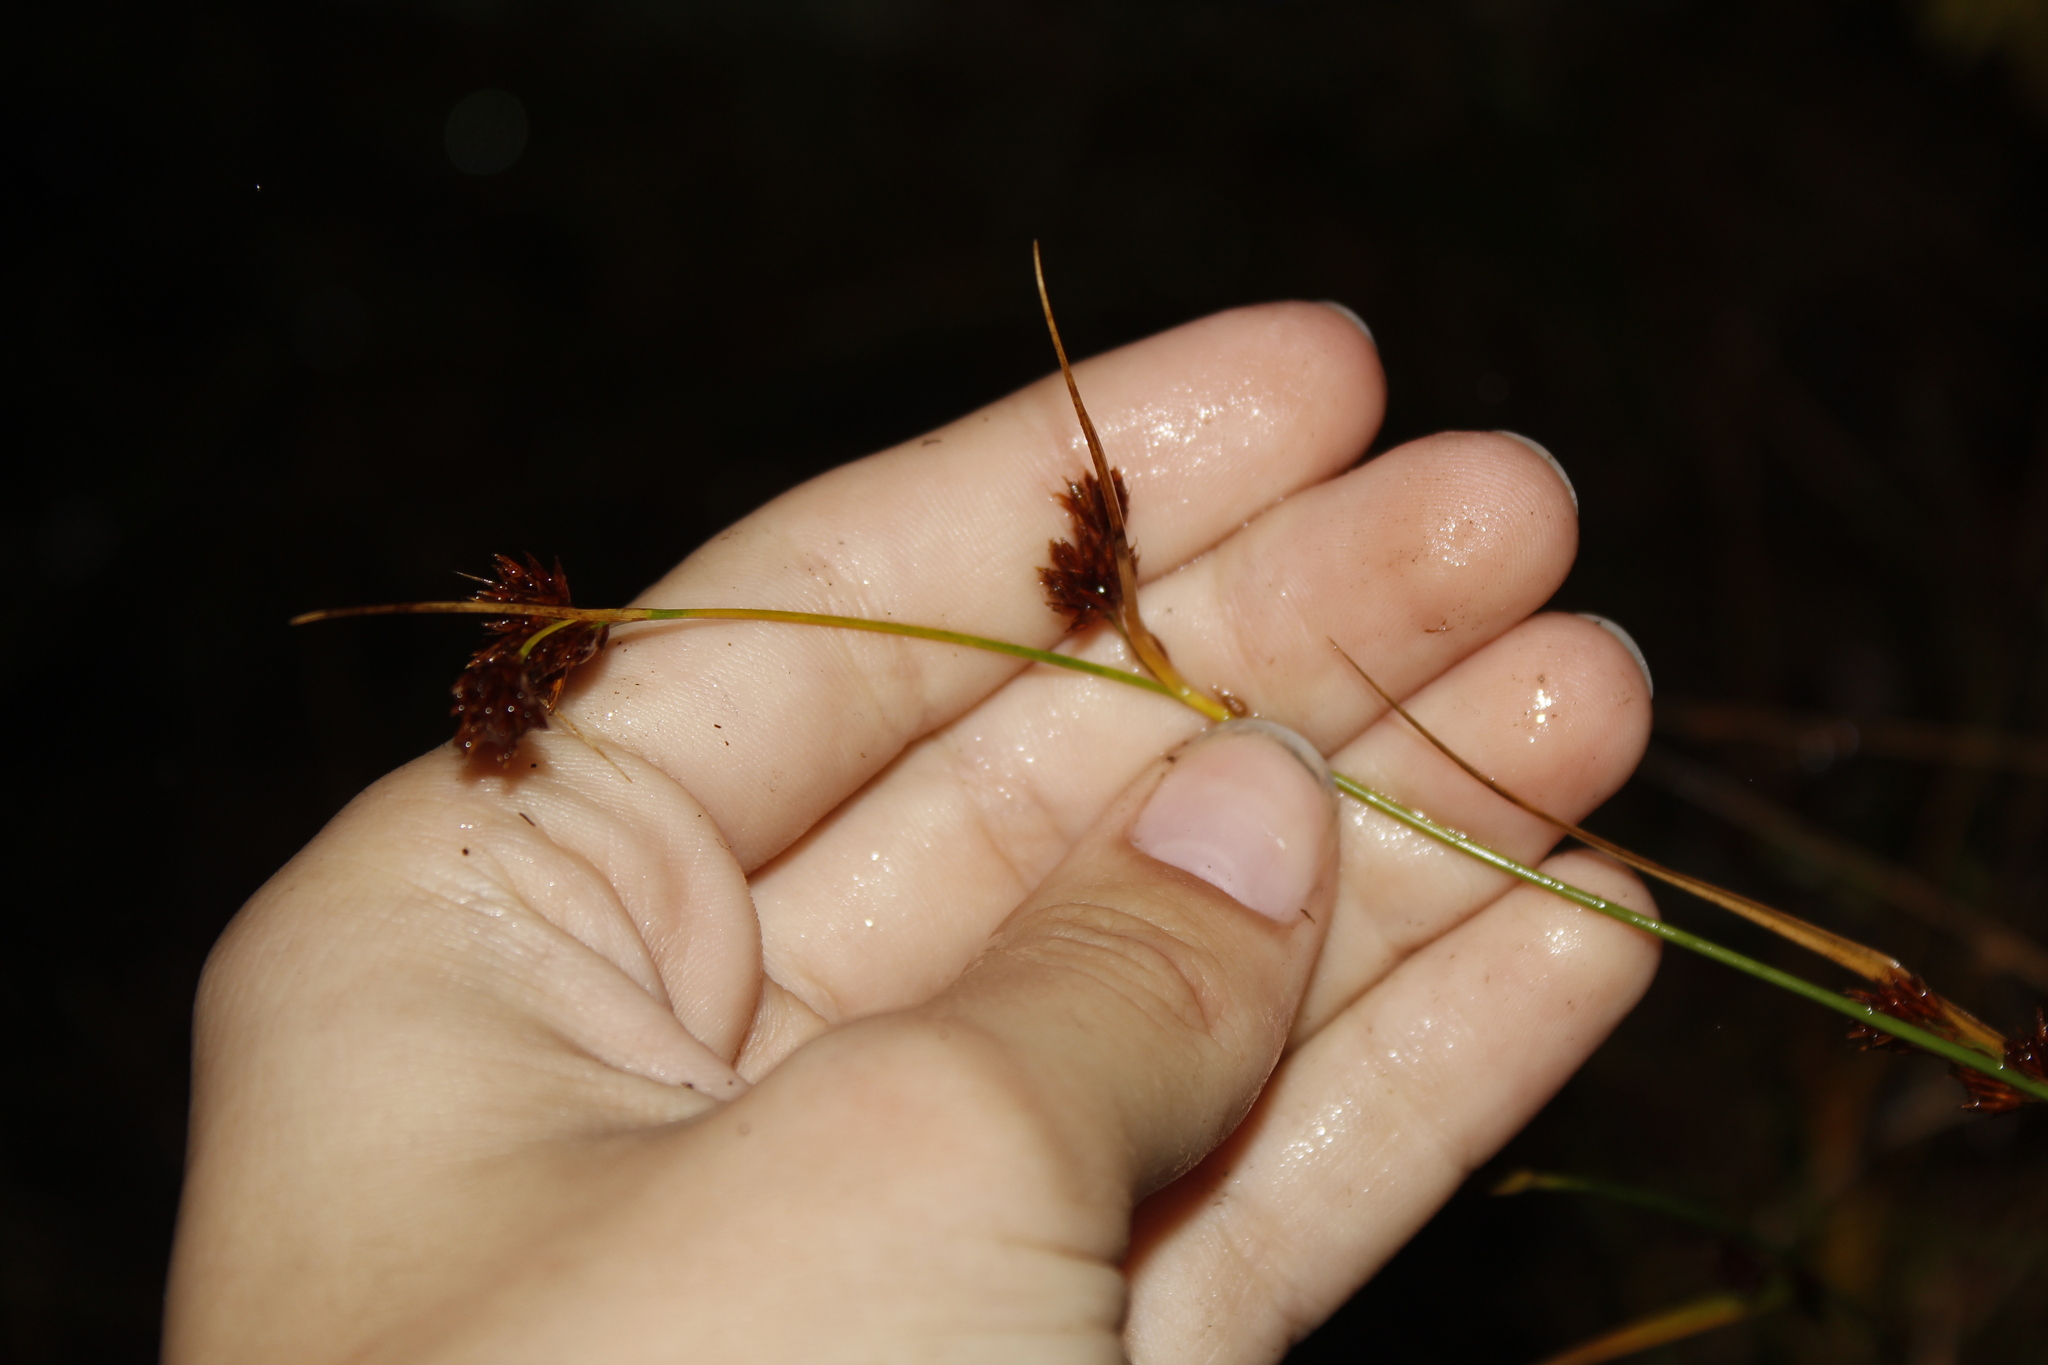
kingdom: Plantae
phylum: Tracheophyta
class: Liliopsida
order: Poales
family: Cyperaceae
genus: Rhynchospora
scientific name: Rhynchospora alba
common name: White beak-sedge
